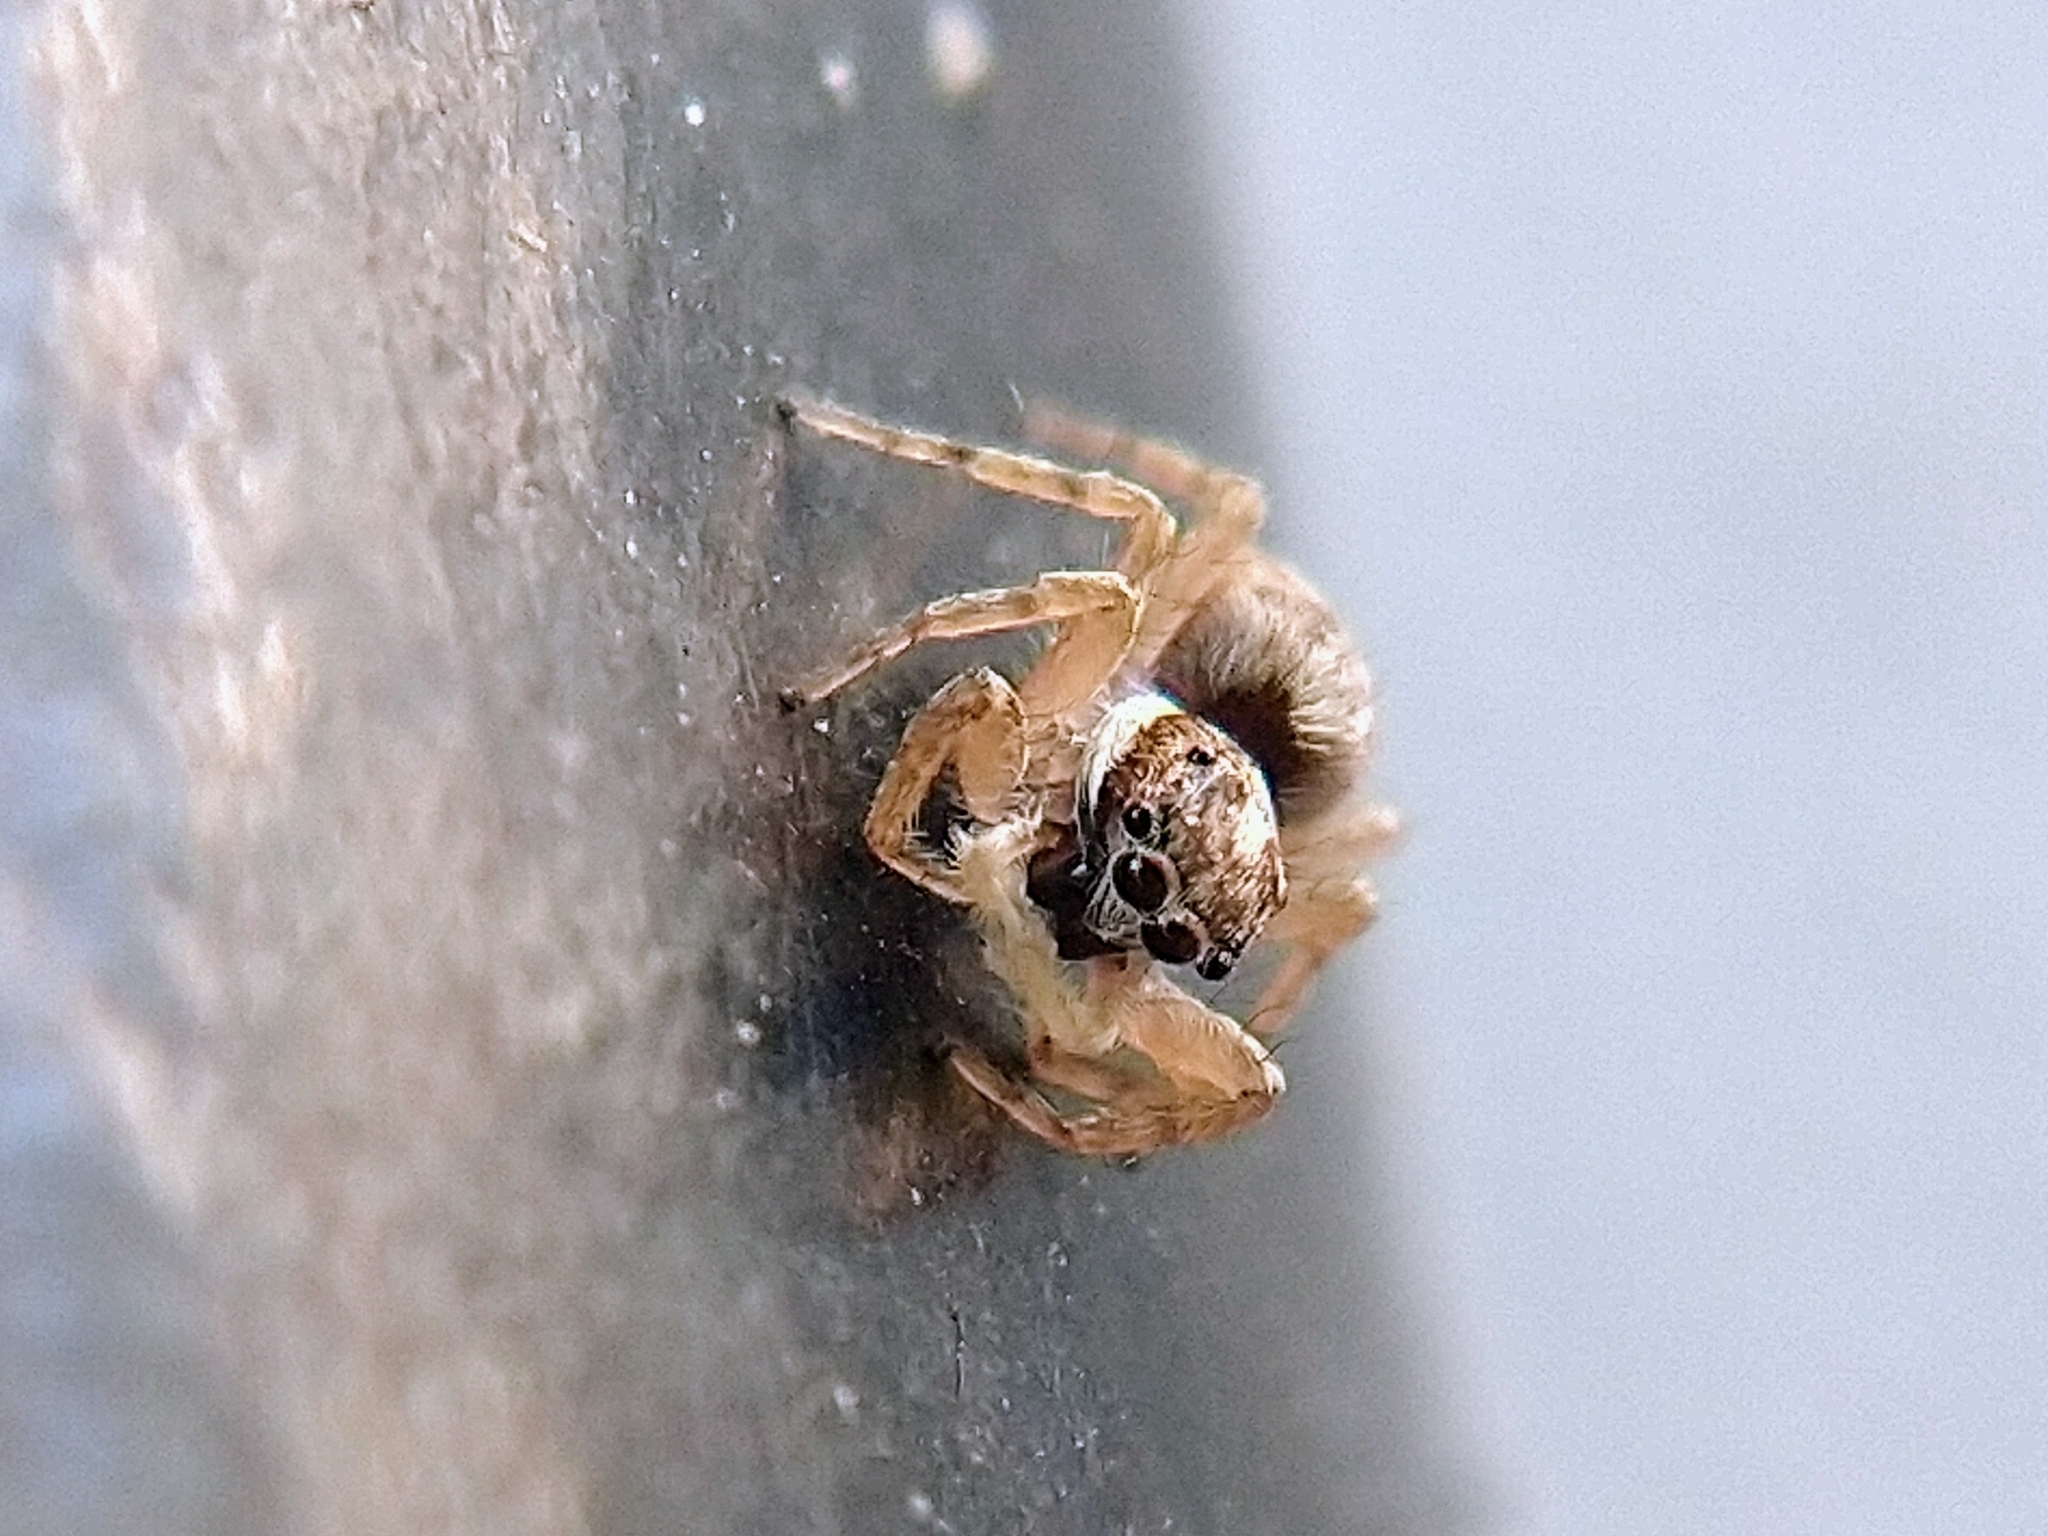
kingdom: Animalia
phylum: Arthropoda
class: Arachnida
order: Araneae
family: Salticidae
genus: Menemerus
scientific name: Menemerus semilimbatus
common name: Jumping spider
